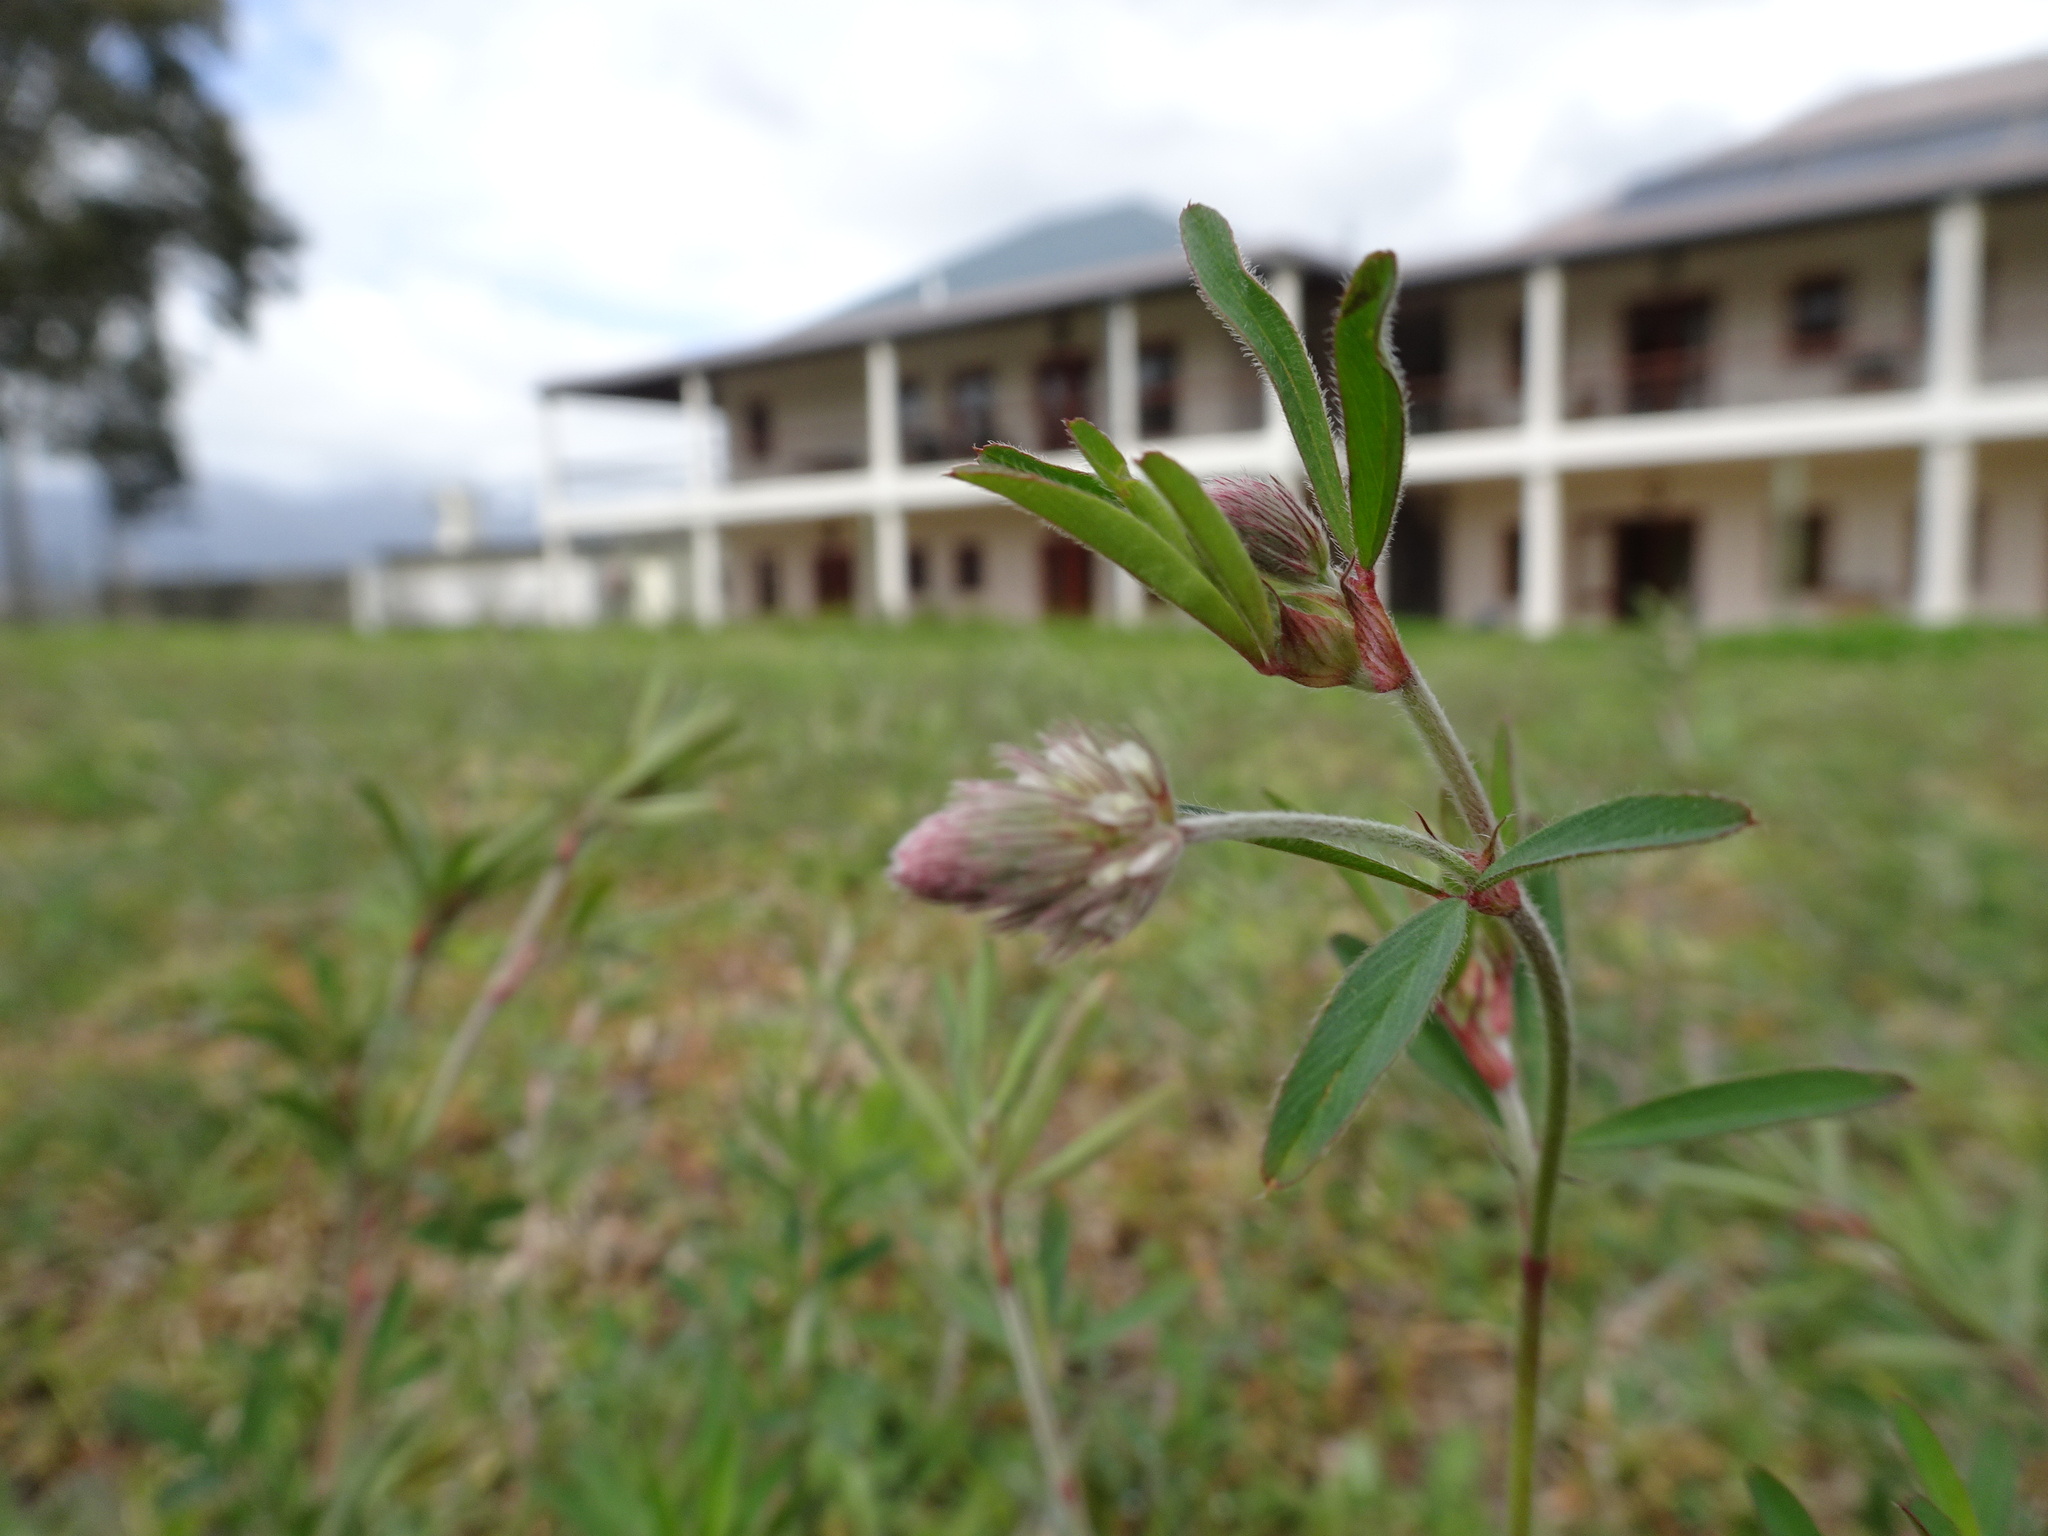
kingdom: Plantae
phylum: Tracheophyta
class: Magnoliopsida
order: Fabales
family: Fabaceae
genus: Trifolium
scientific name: Trifolium arvense
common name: Hare's-foot clover
